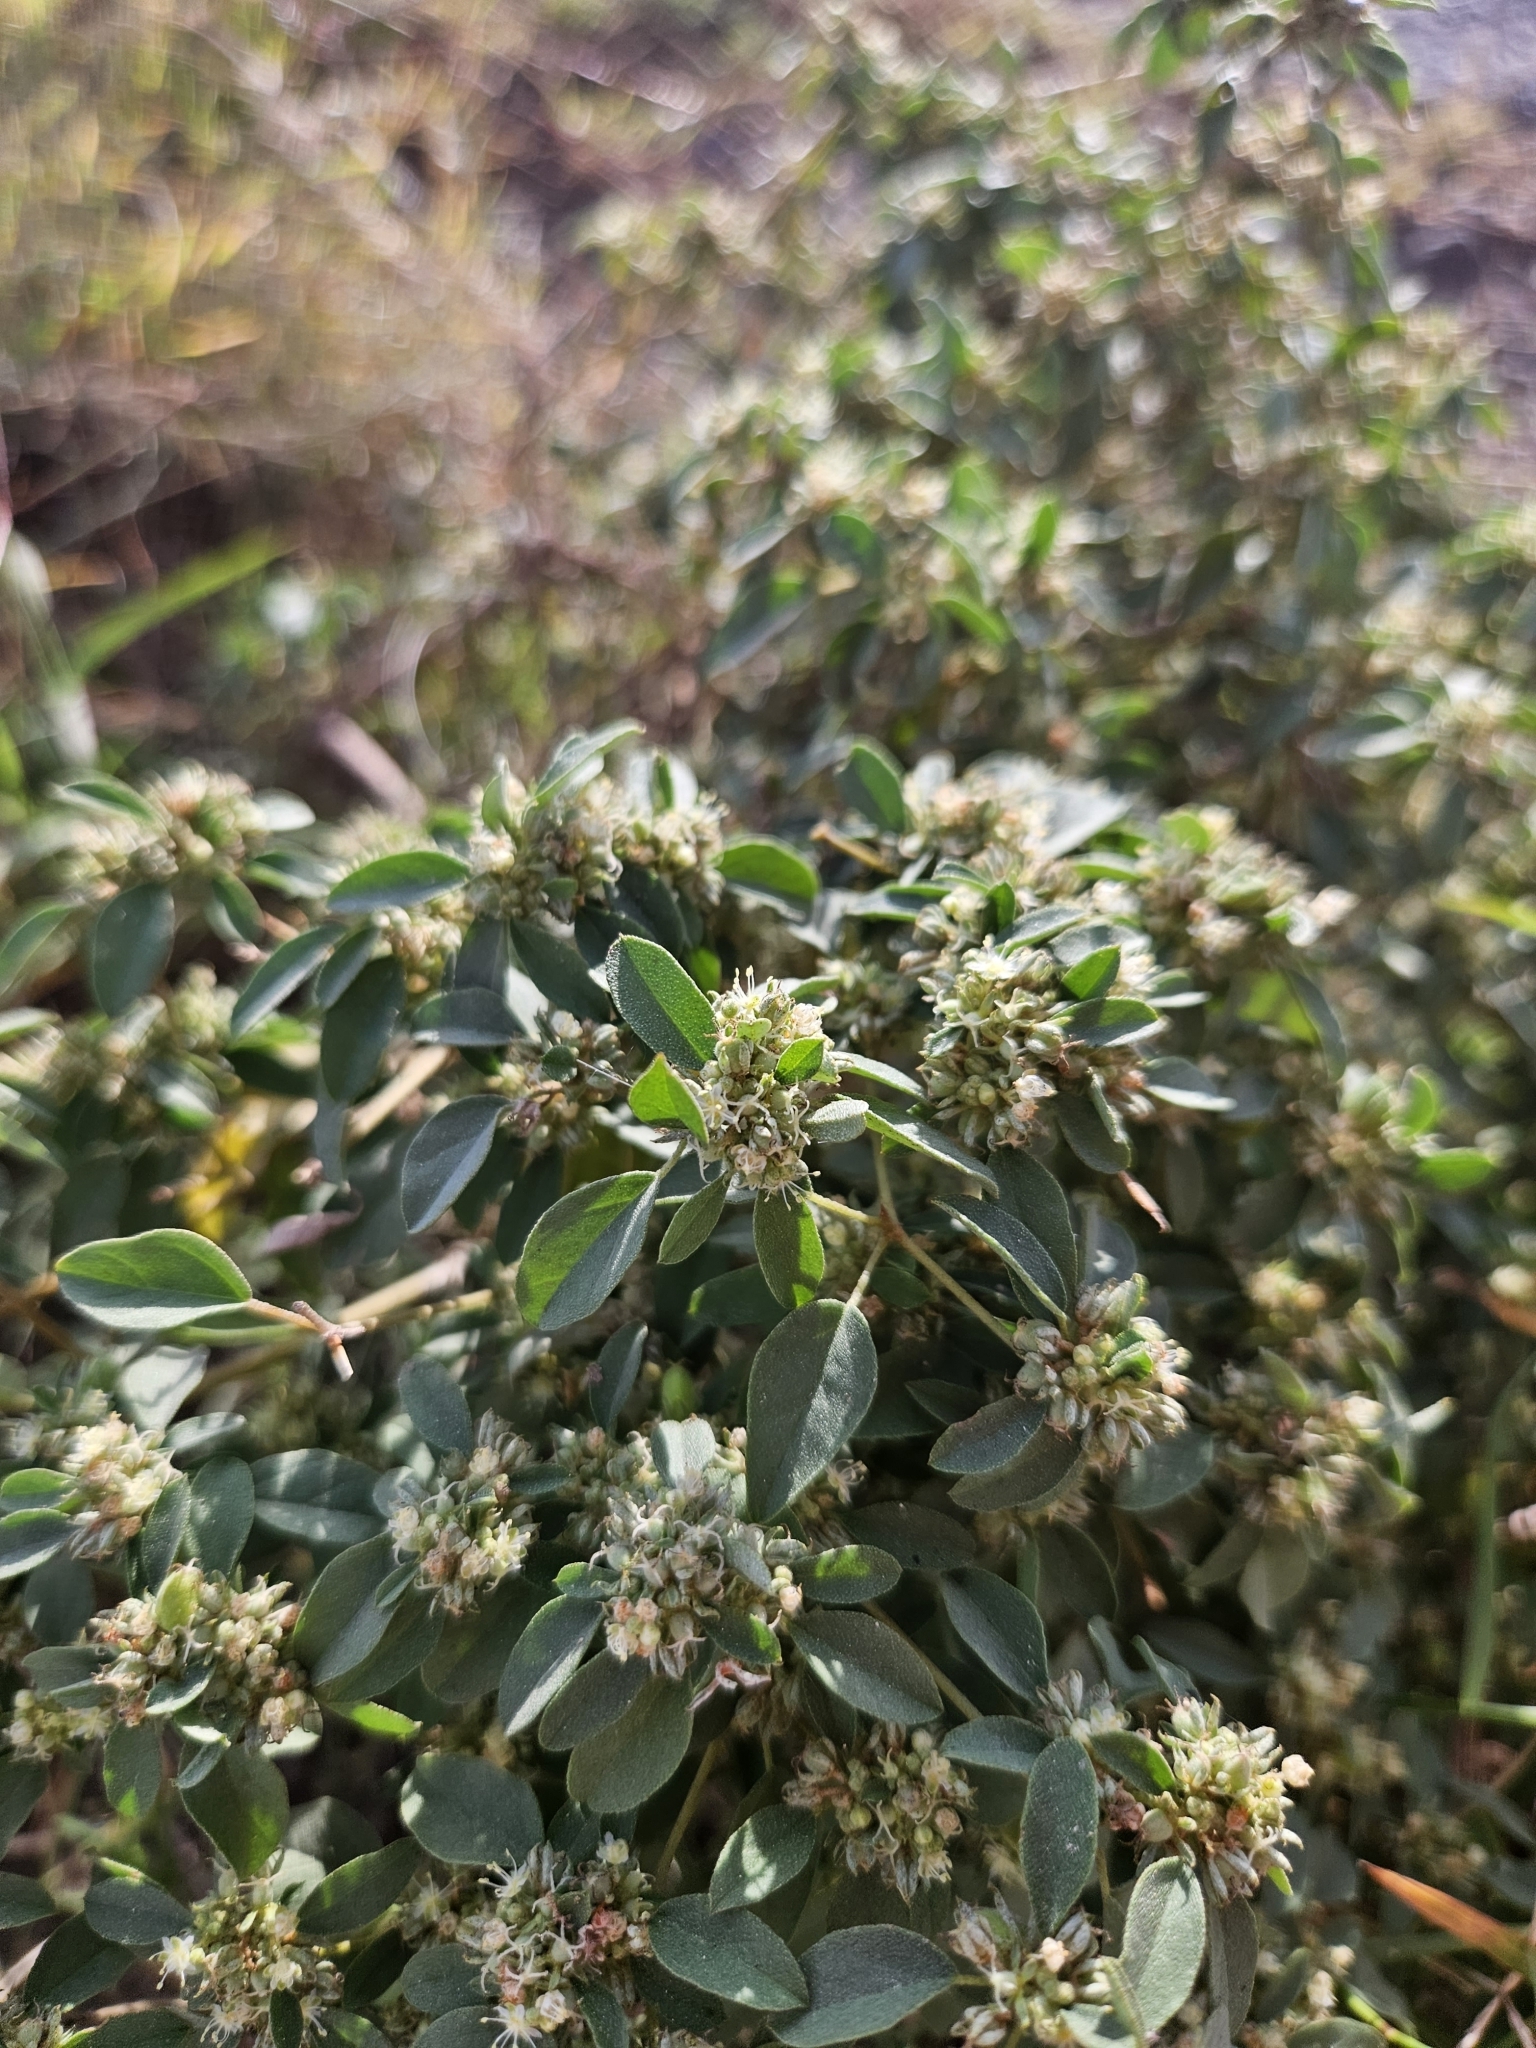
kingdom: Plantae
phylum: Tracheophyta
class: Magnoliopsida
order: Malpighiales
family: Euphorbiaceae
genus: Croton
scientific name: Croton monanthogynus
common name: One-seed croton
